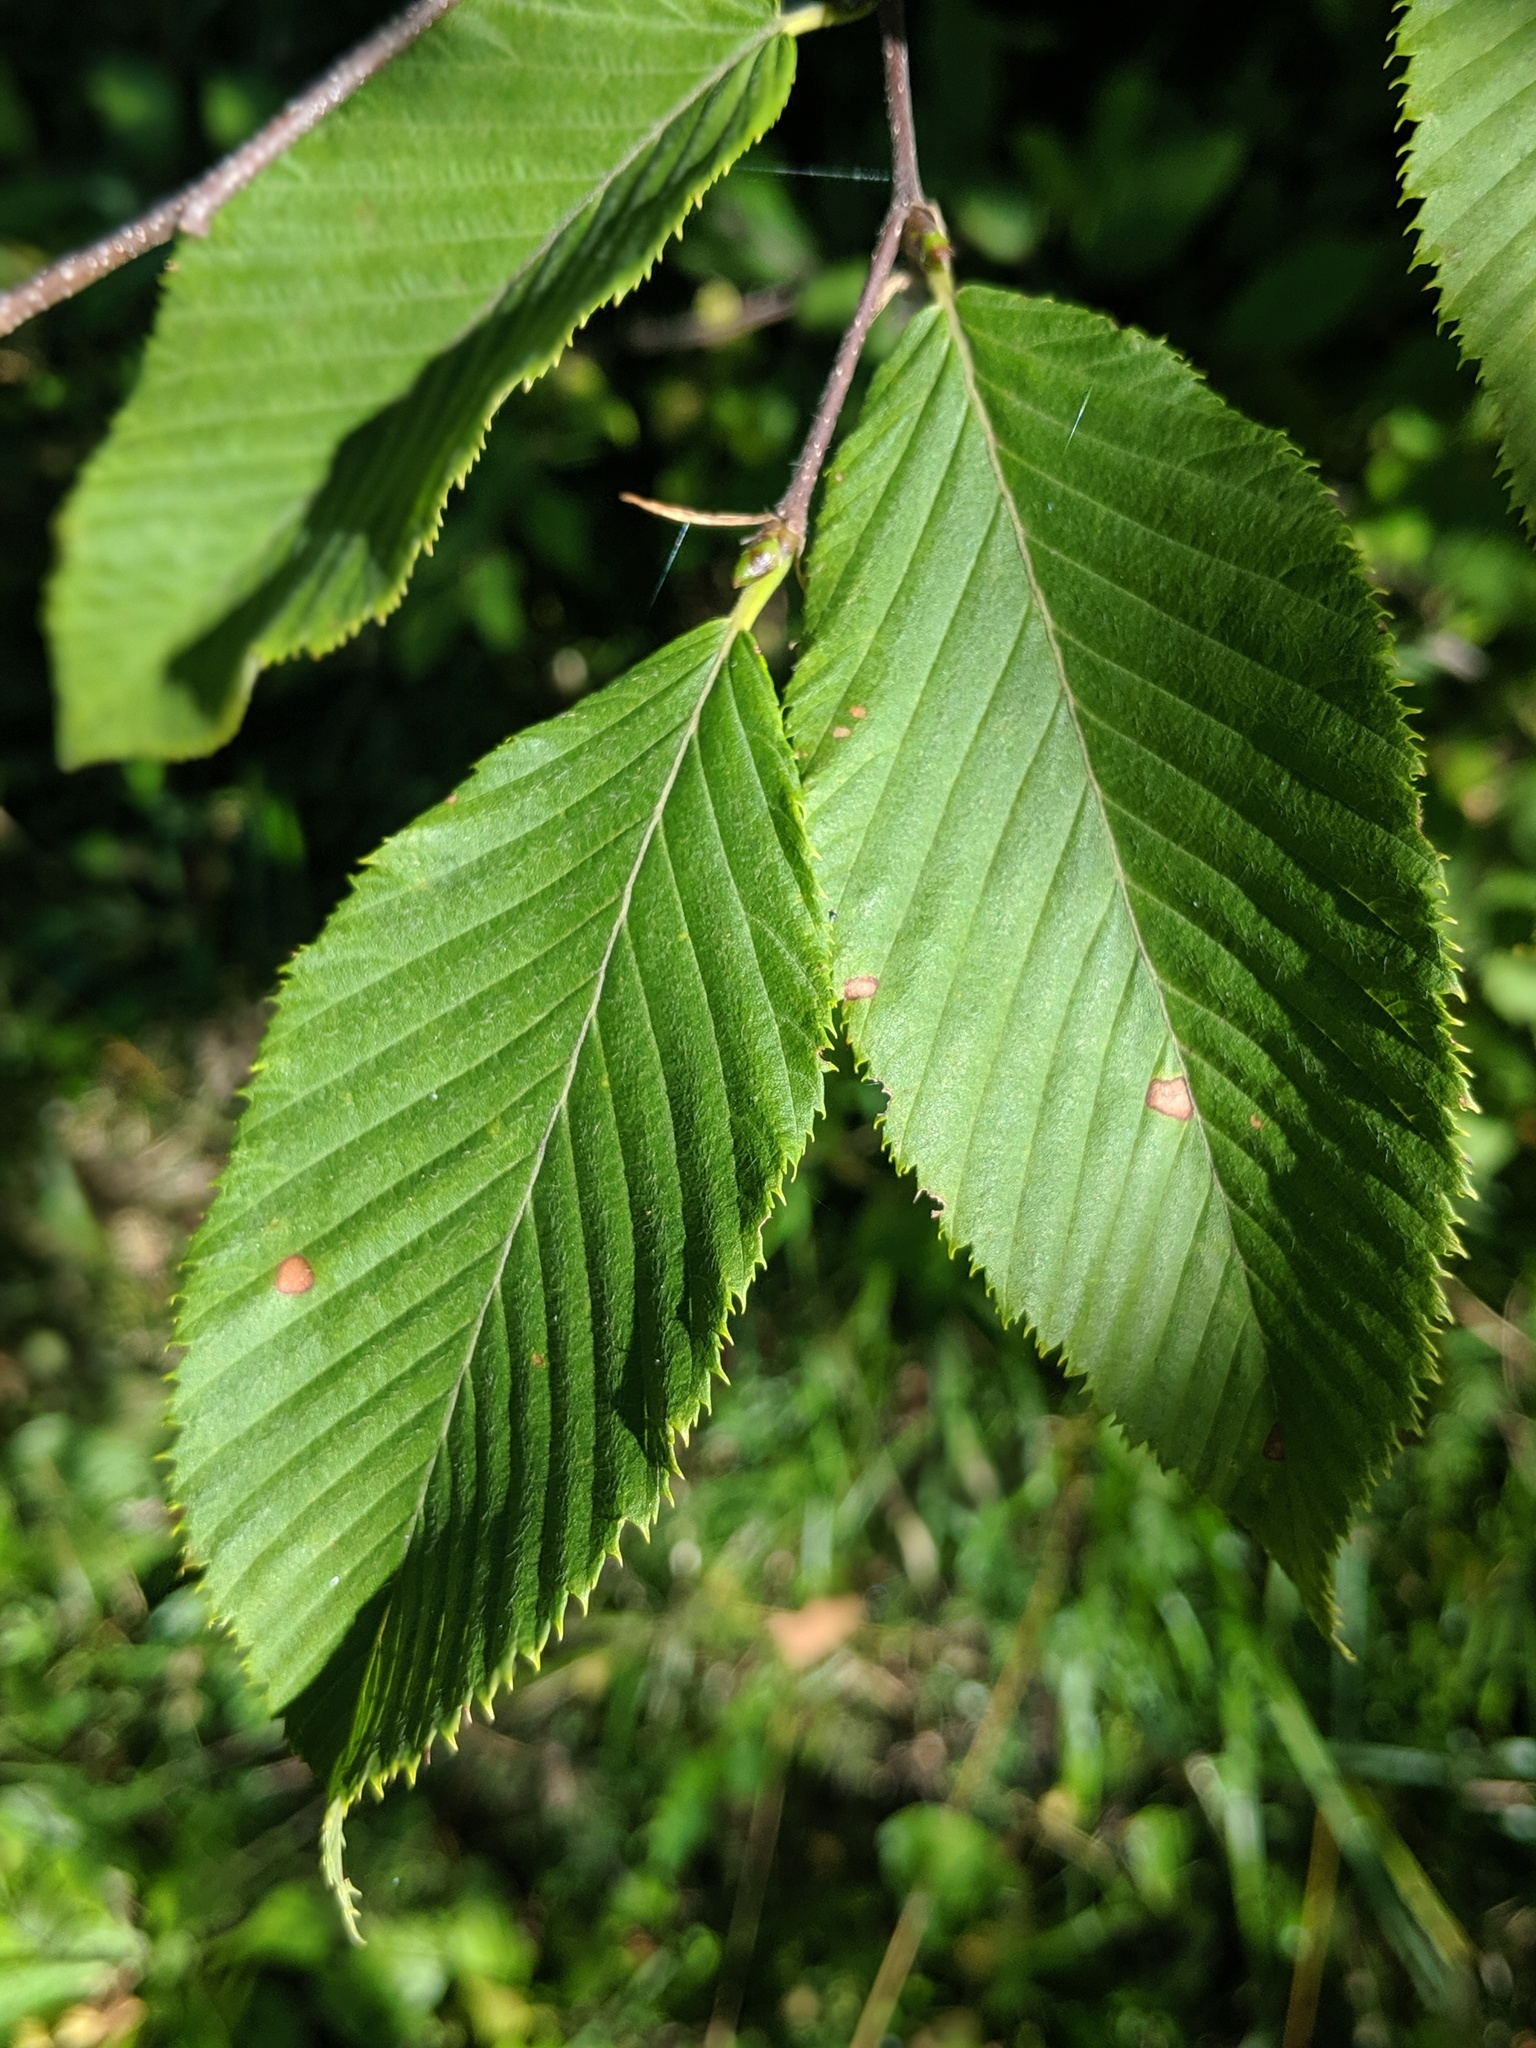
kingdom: Plantae
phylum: Tracheophyta
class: Magnoliopsida
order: Fagales
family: Betulaceae
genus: Carpinus
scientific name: Carpinus betulus
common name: Hornbeam
